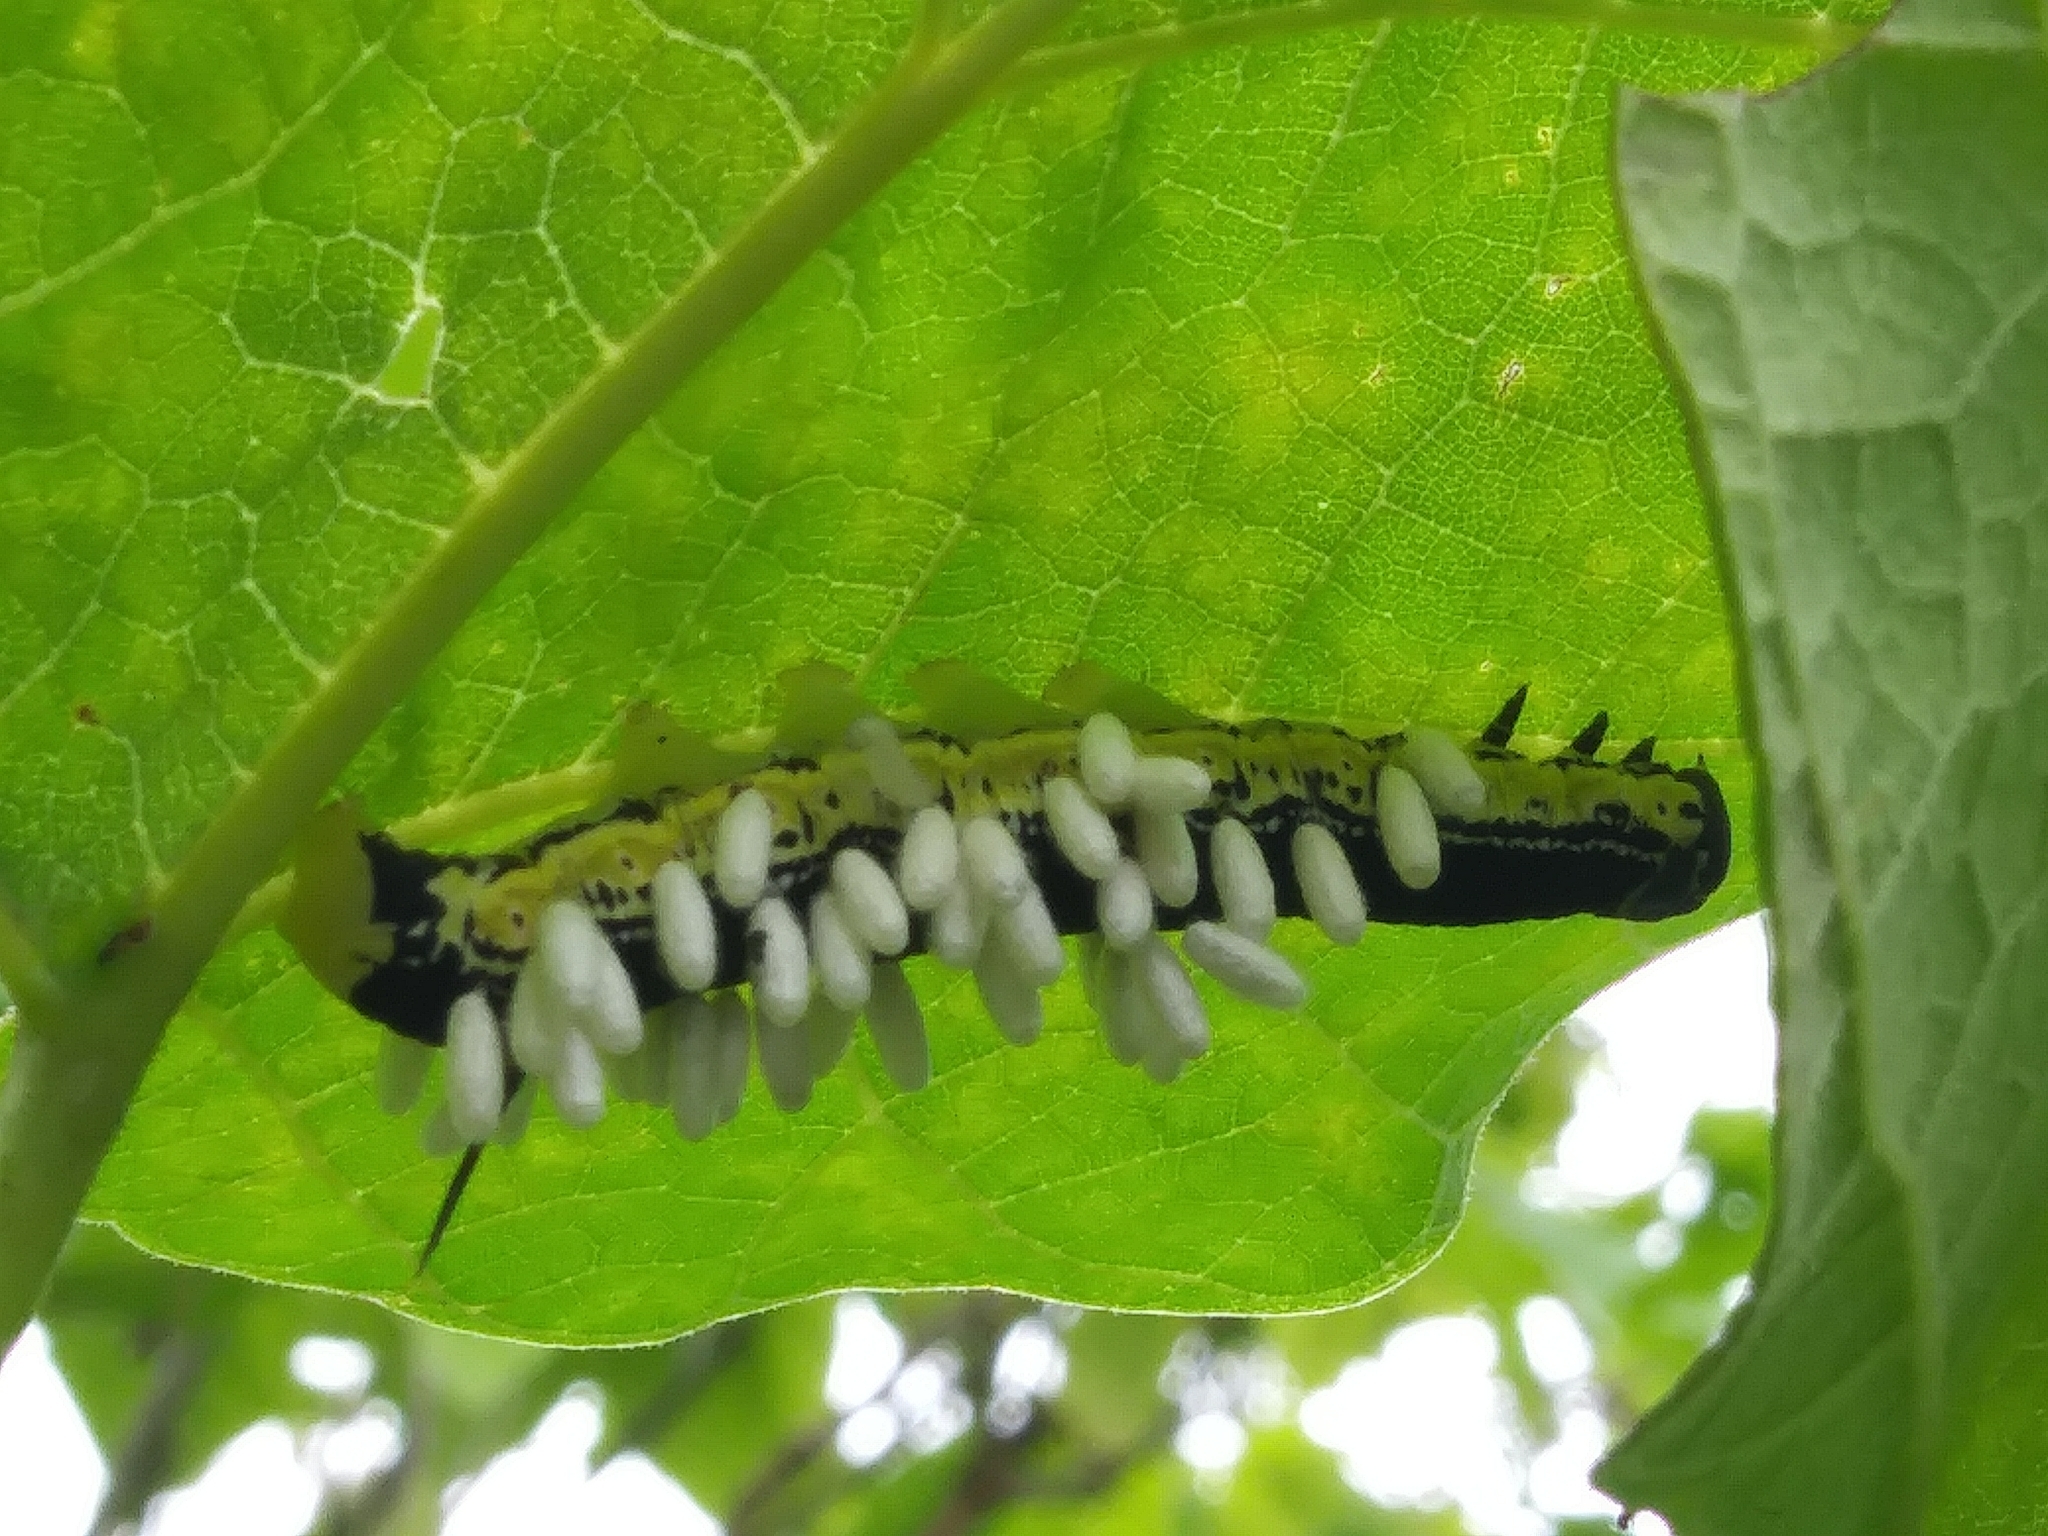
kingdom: Animalia
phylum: Arthropoda
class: Insecta
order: Lepidoptera
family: Sphingidae
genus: Ceratomia
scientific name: Ceratomia catalpae
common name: Catalpa hornworm
